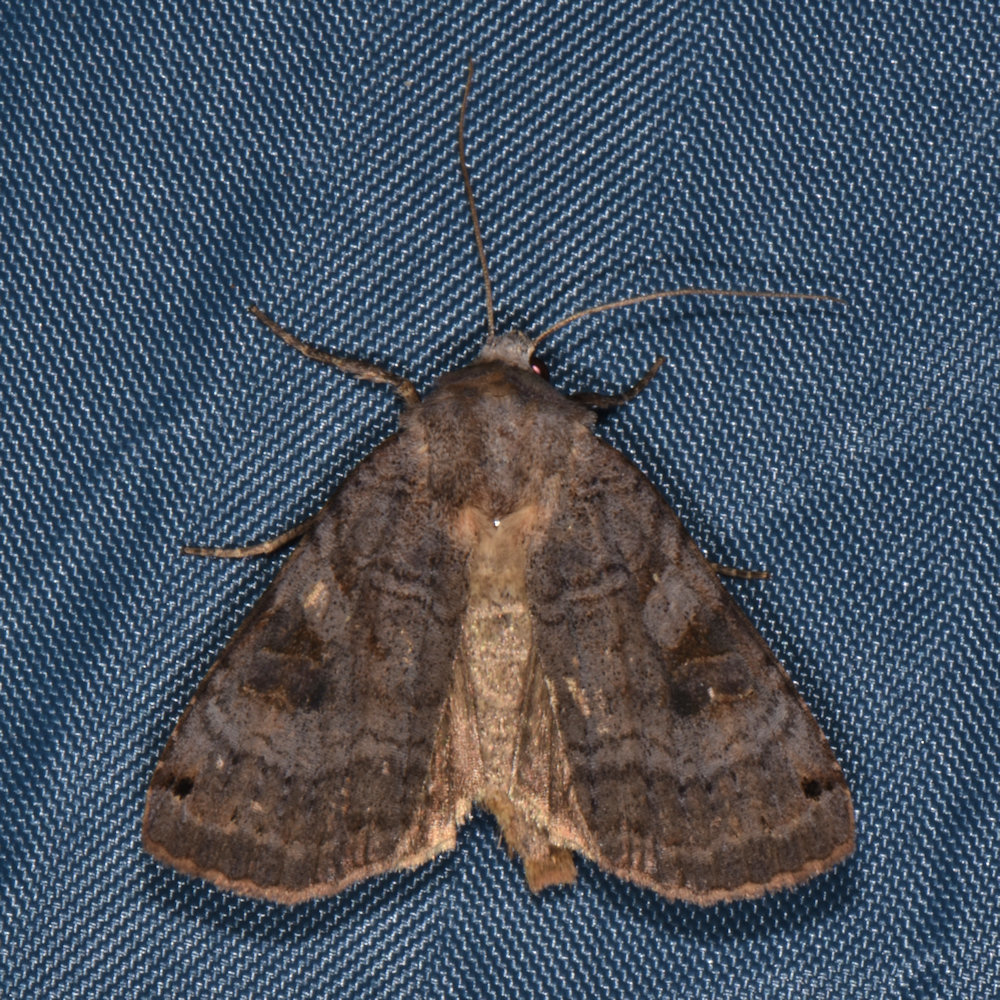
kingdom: Animalia
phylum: Arthropoda
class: Insecta
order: Lepidoptera
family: Noctuidae
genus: Xestia
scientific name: Xestia smithii
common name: Smith's dart
